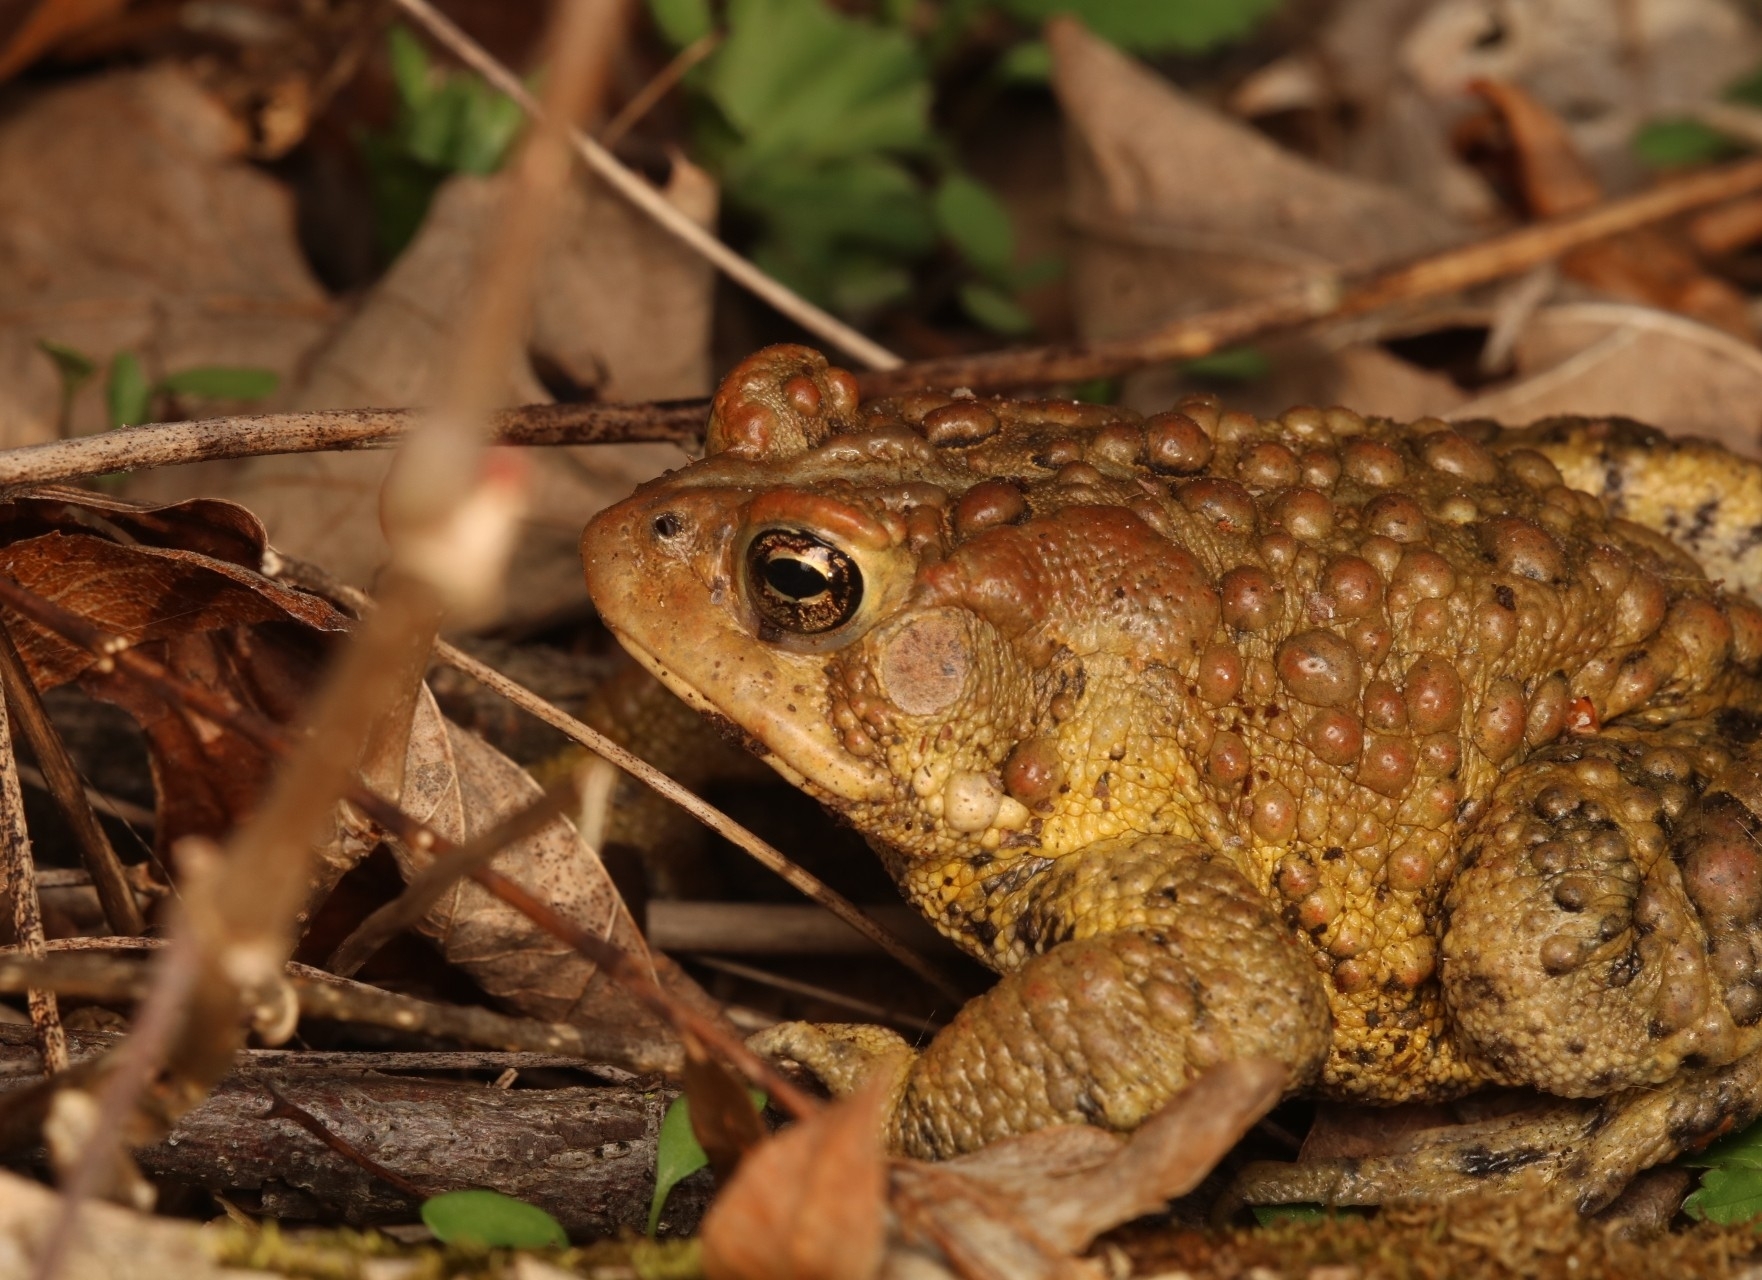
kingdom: Animalia
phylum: Chordata
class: Amphibia
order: Anura
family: Bufonidae
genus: Anaxyrus
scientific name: Anaxyrus americanus
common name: American toad
